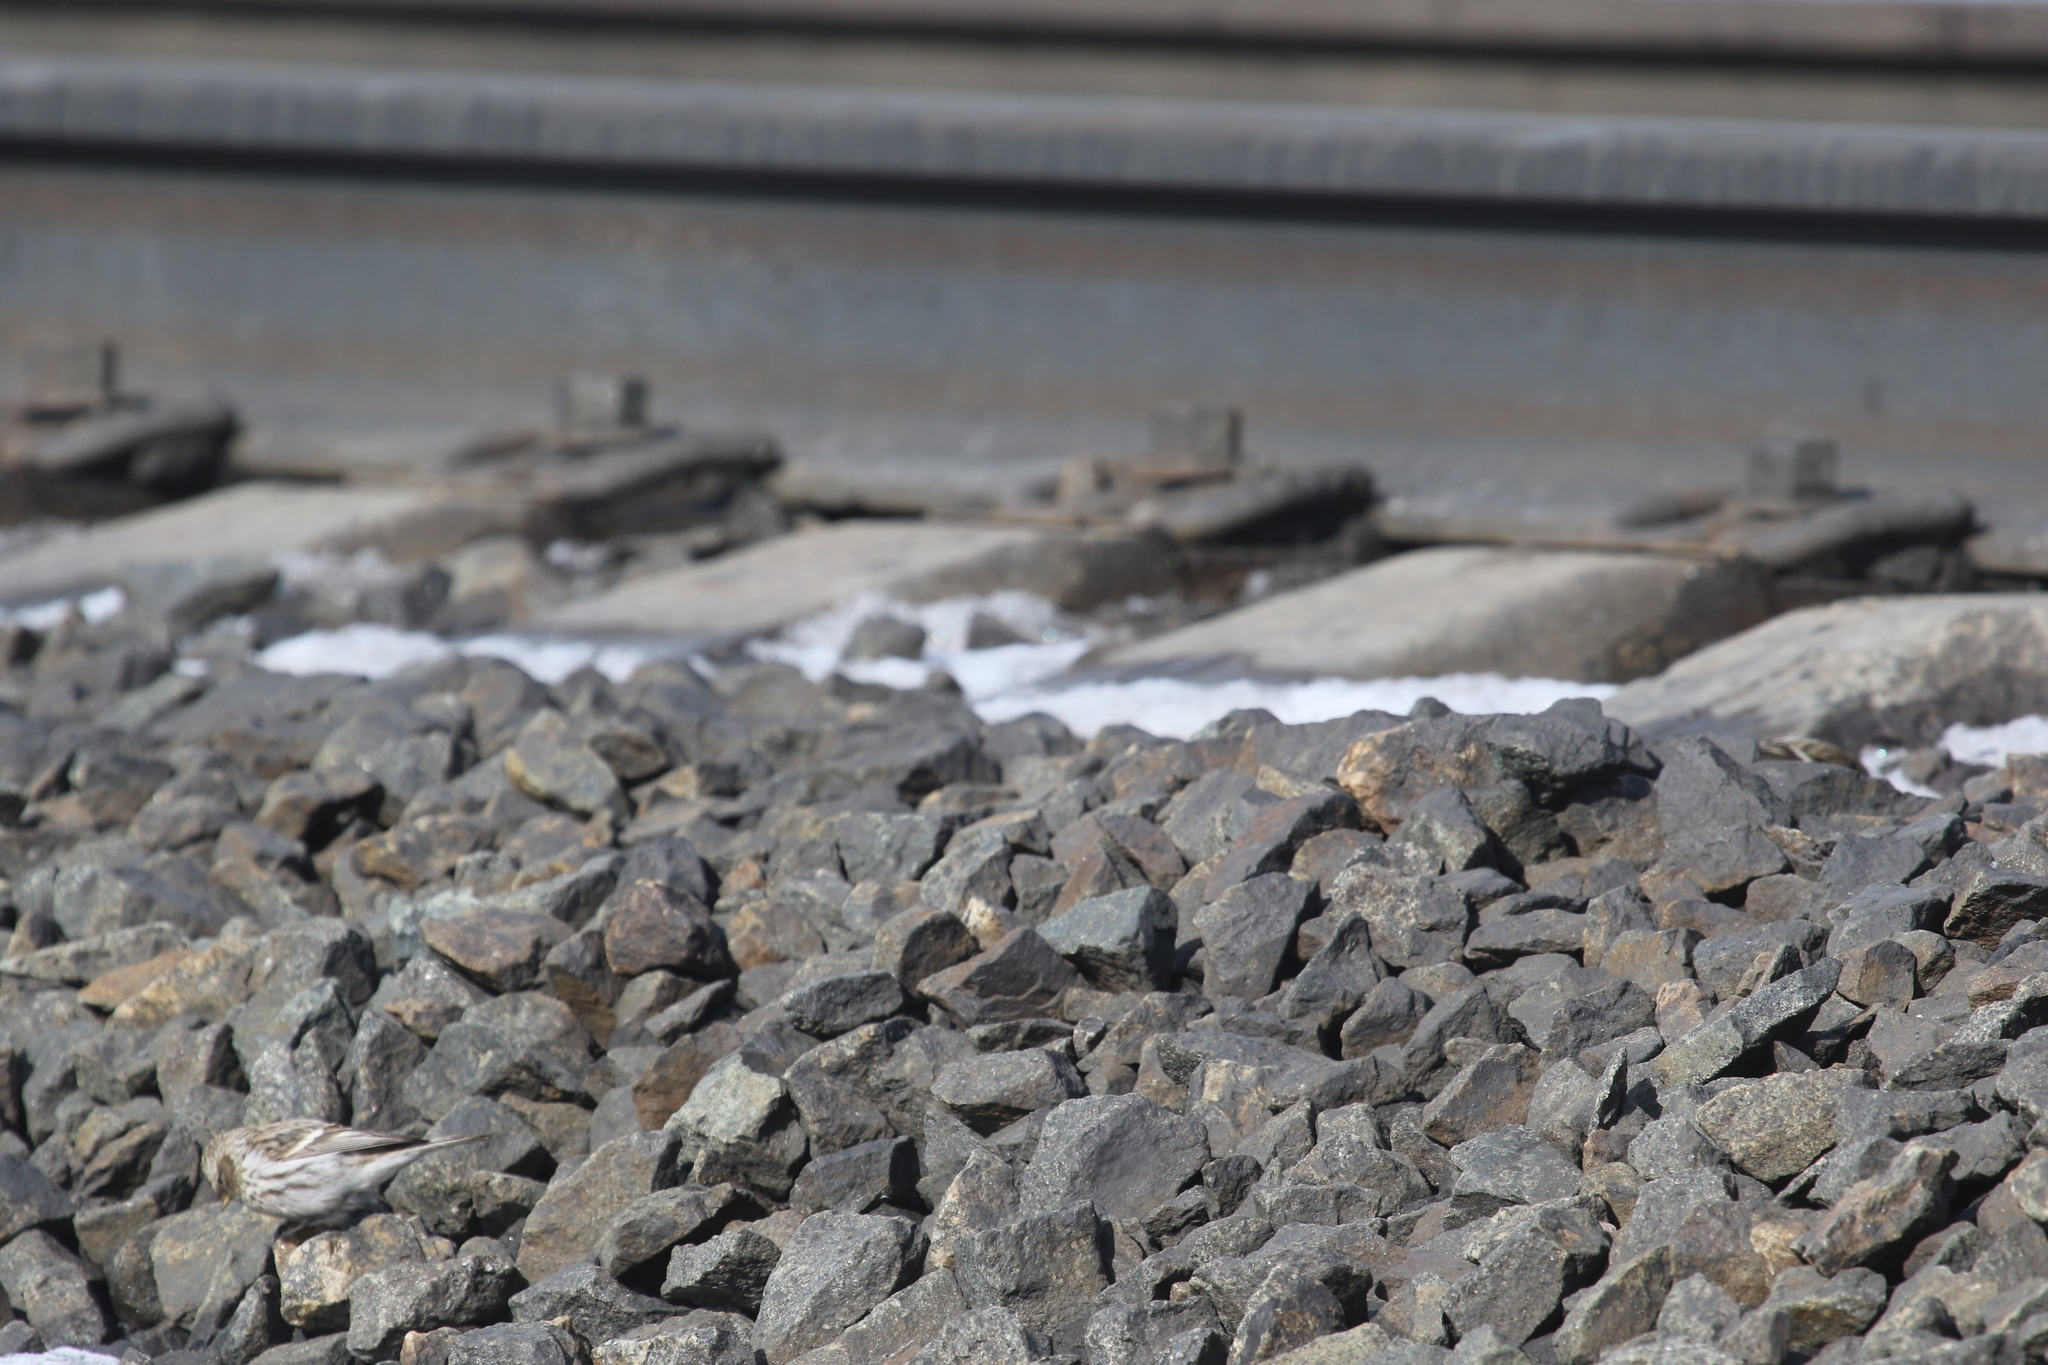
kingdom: Animalia
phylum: Chordata
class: Aves
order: Passeriformes
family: Fringillidae
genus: Acanthis
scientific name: Acanthis flammea
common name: Common redpoll
